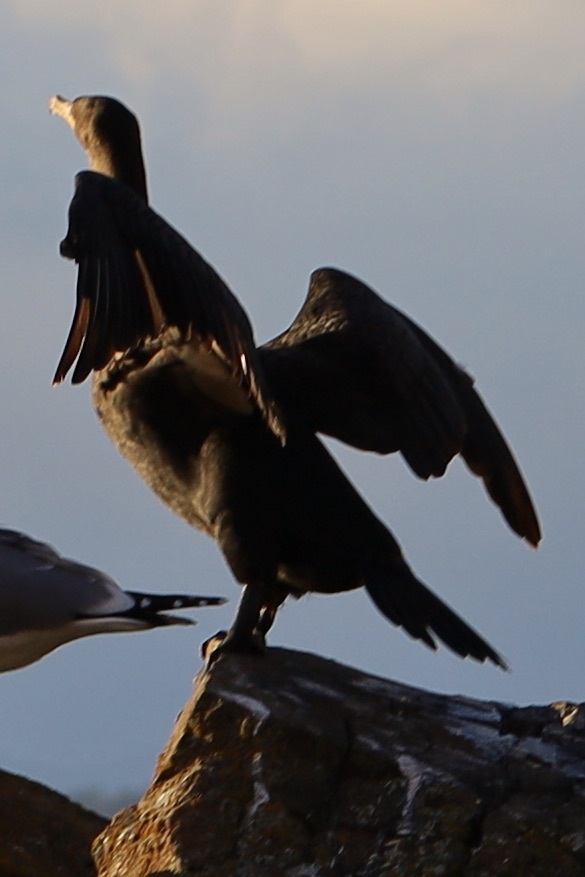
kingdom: Animalia
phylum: Chordata
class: Aves
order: Suliformes
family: Phalacrocoracidae
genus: Phalacrocorax
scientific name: Phalacrocorax auritus
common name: Double-crested cormorant
